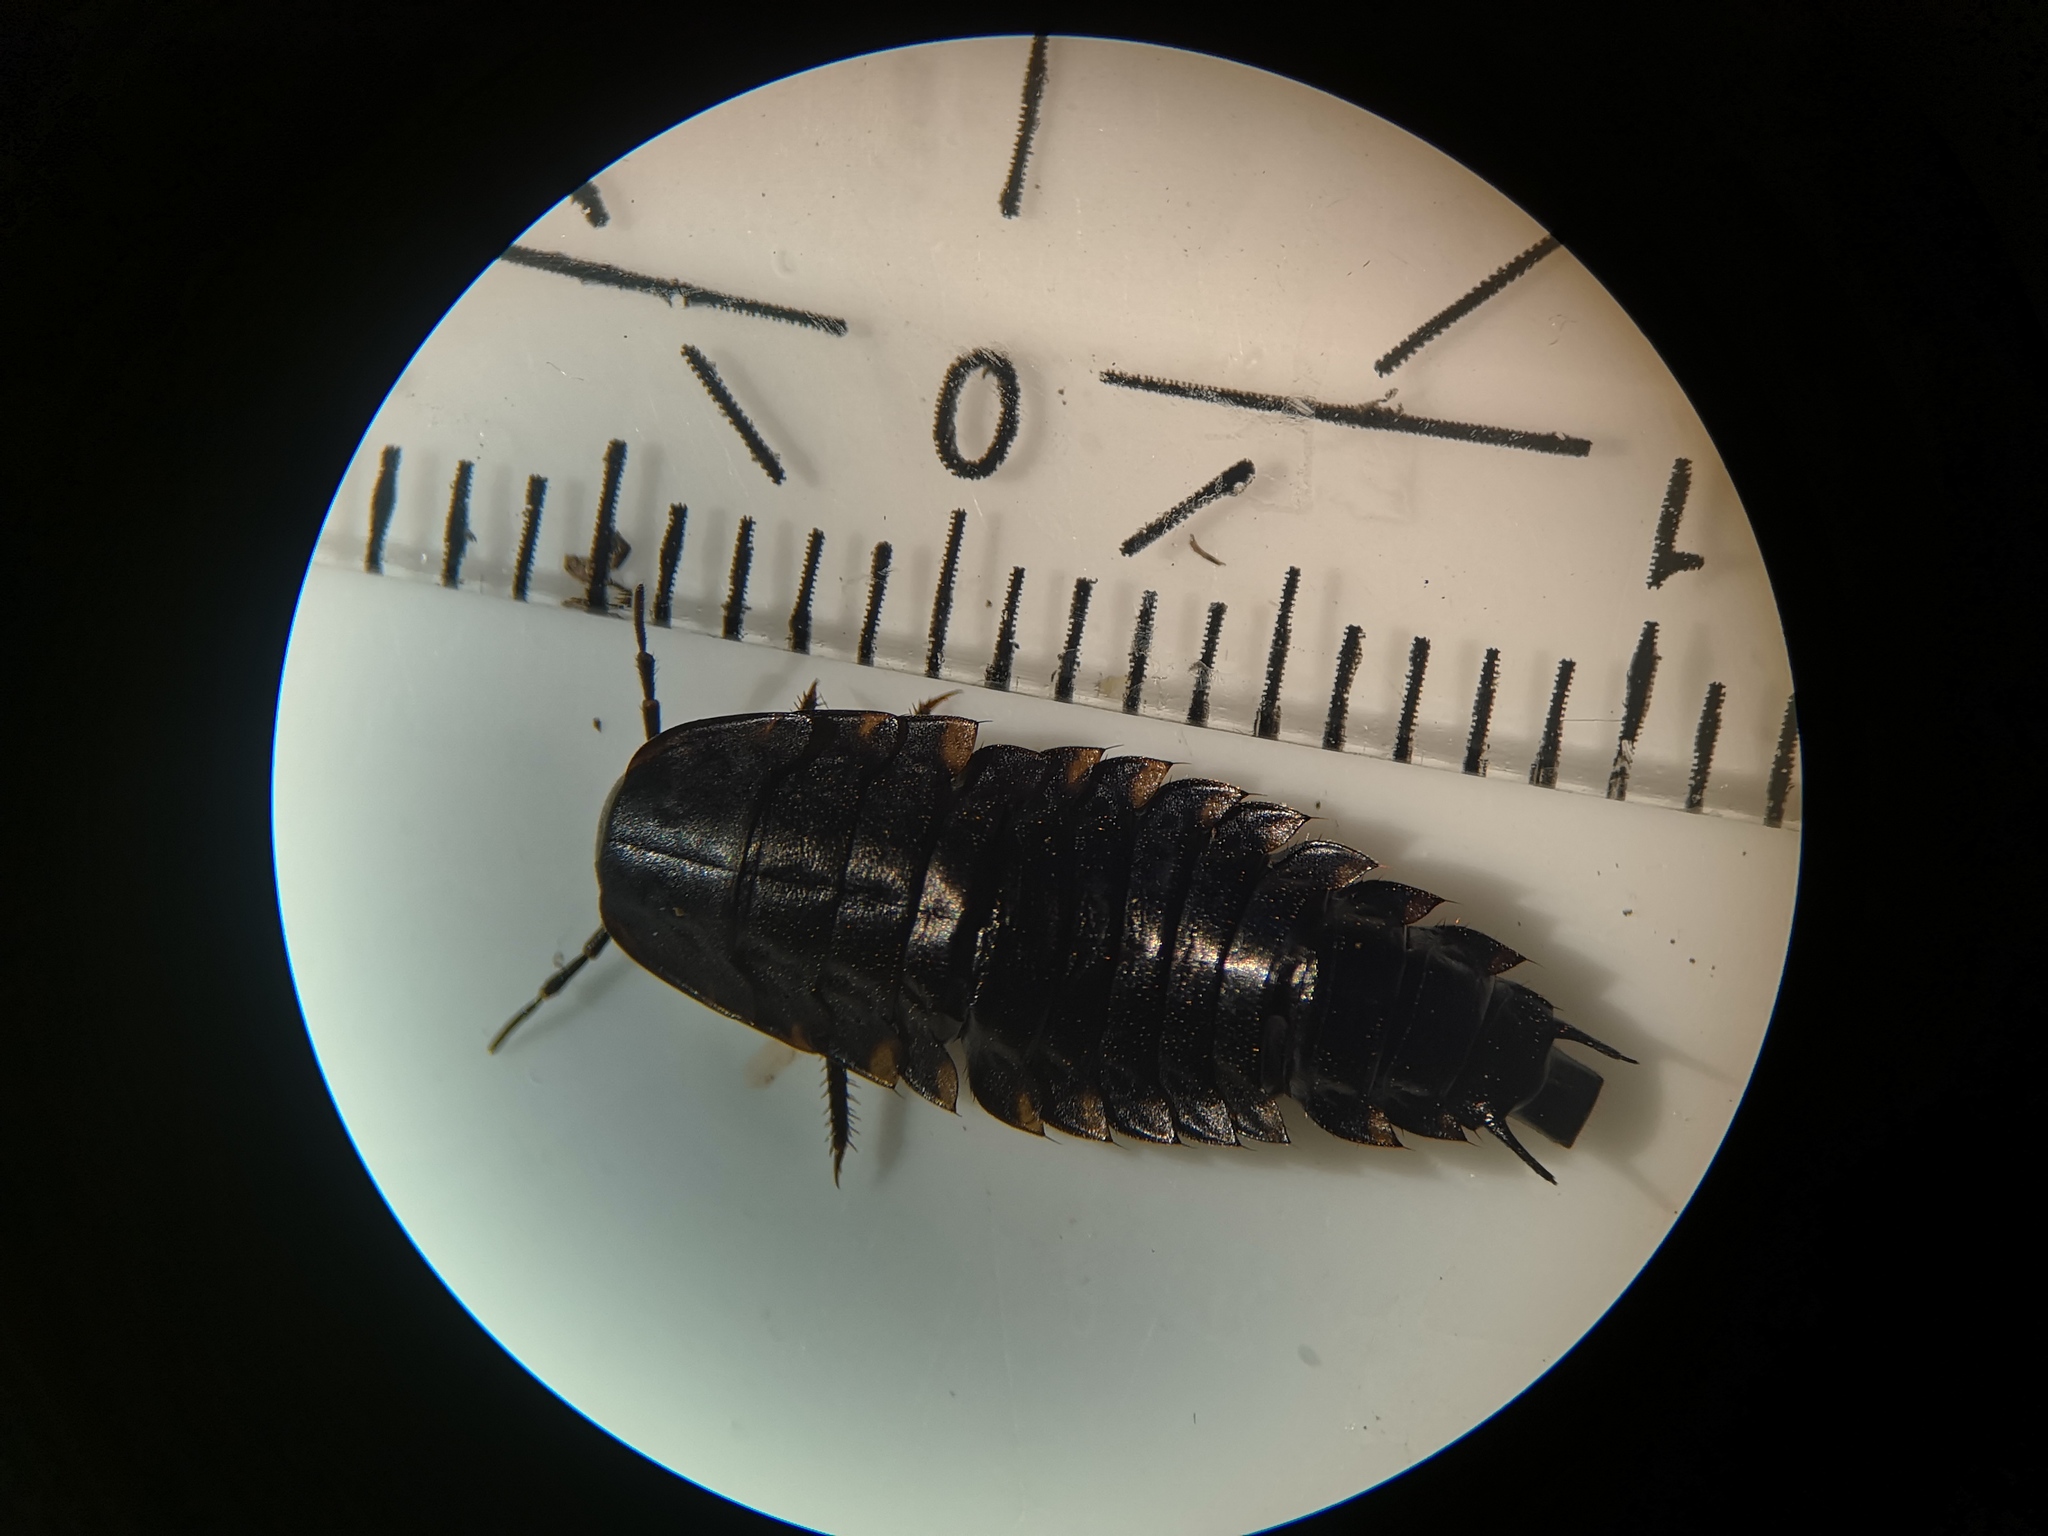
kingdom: Animalia
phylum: Arthropoda
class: Insecta
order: Coleoptera
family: Staphylinidae
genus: Silpha
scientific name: Silpha tristis
